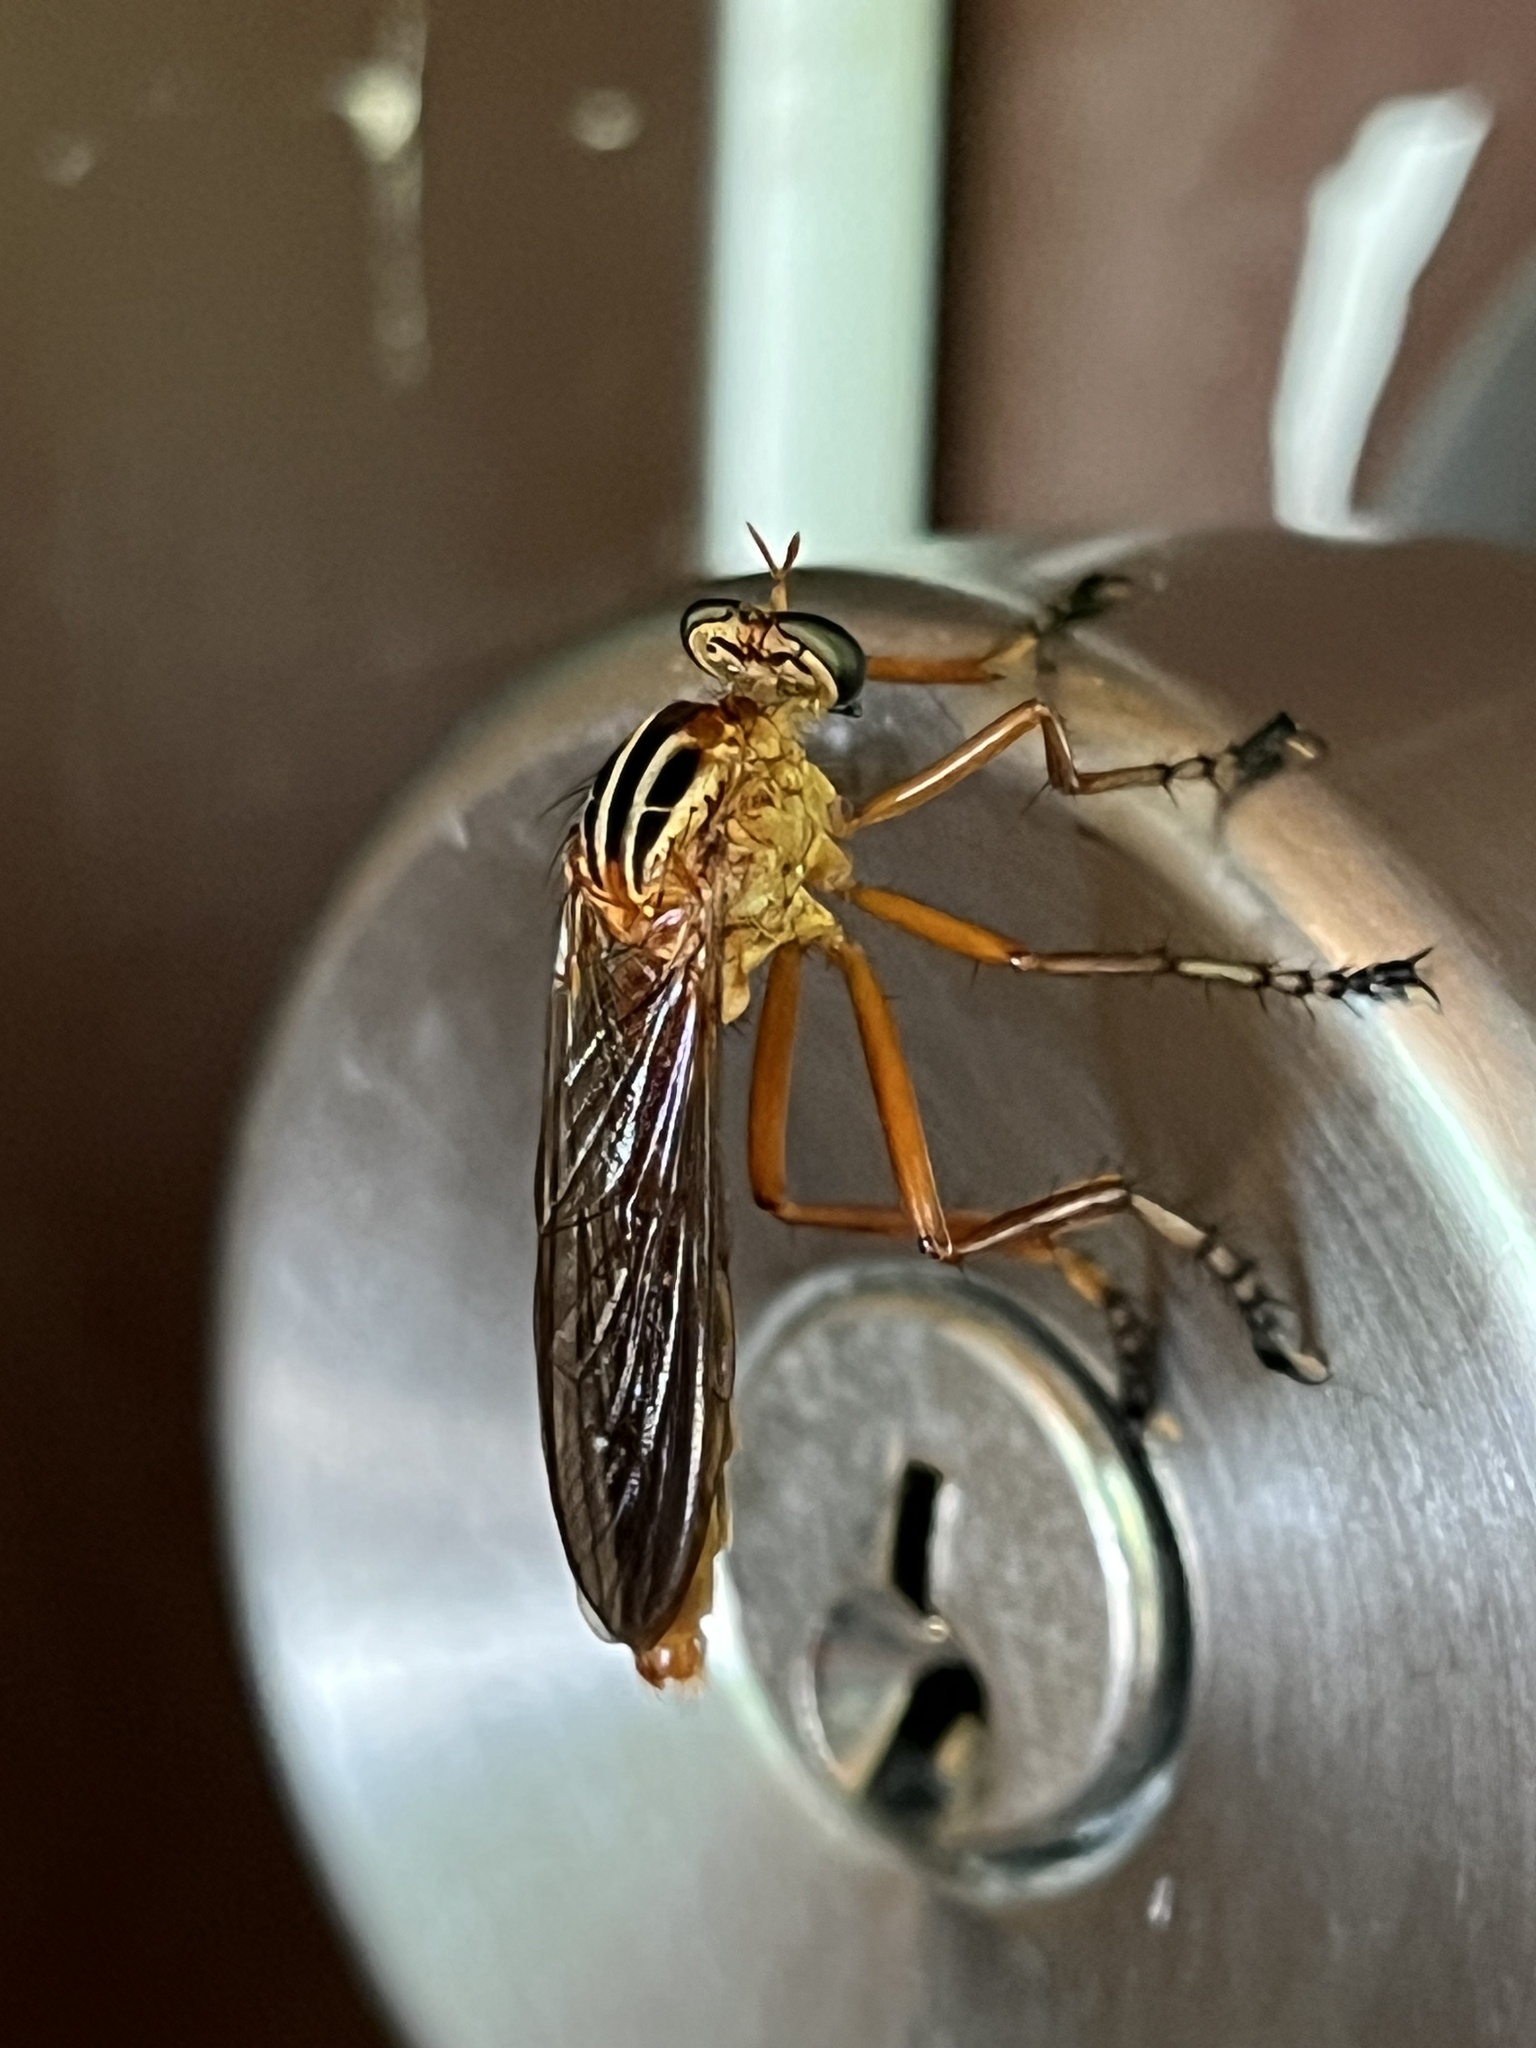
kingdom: Animalia
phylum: Arthropoda
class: Insecta
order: Diptera
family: Asilidae
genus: Diogmites
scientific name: Diogmites neoternatus
